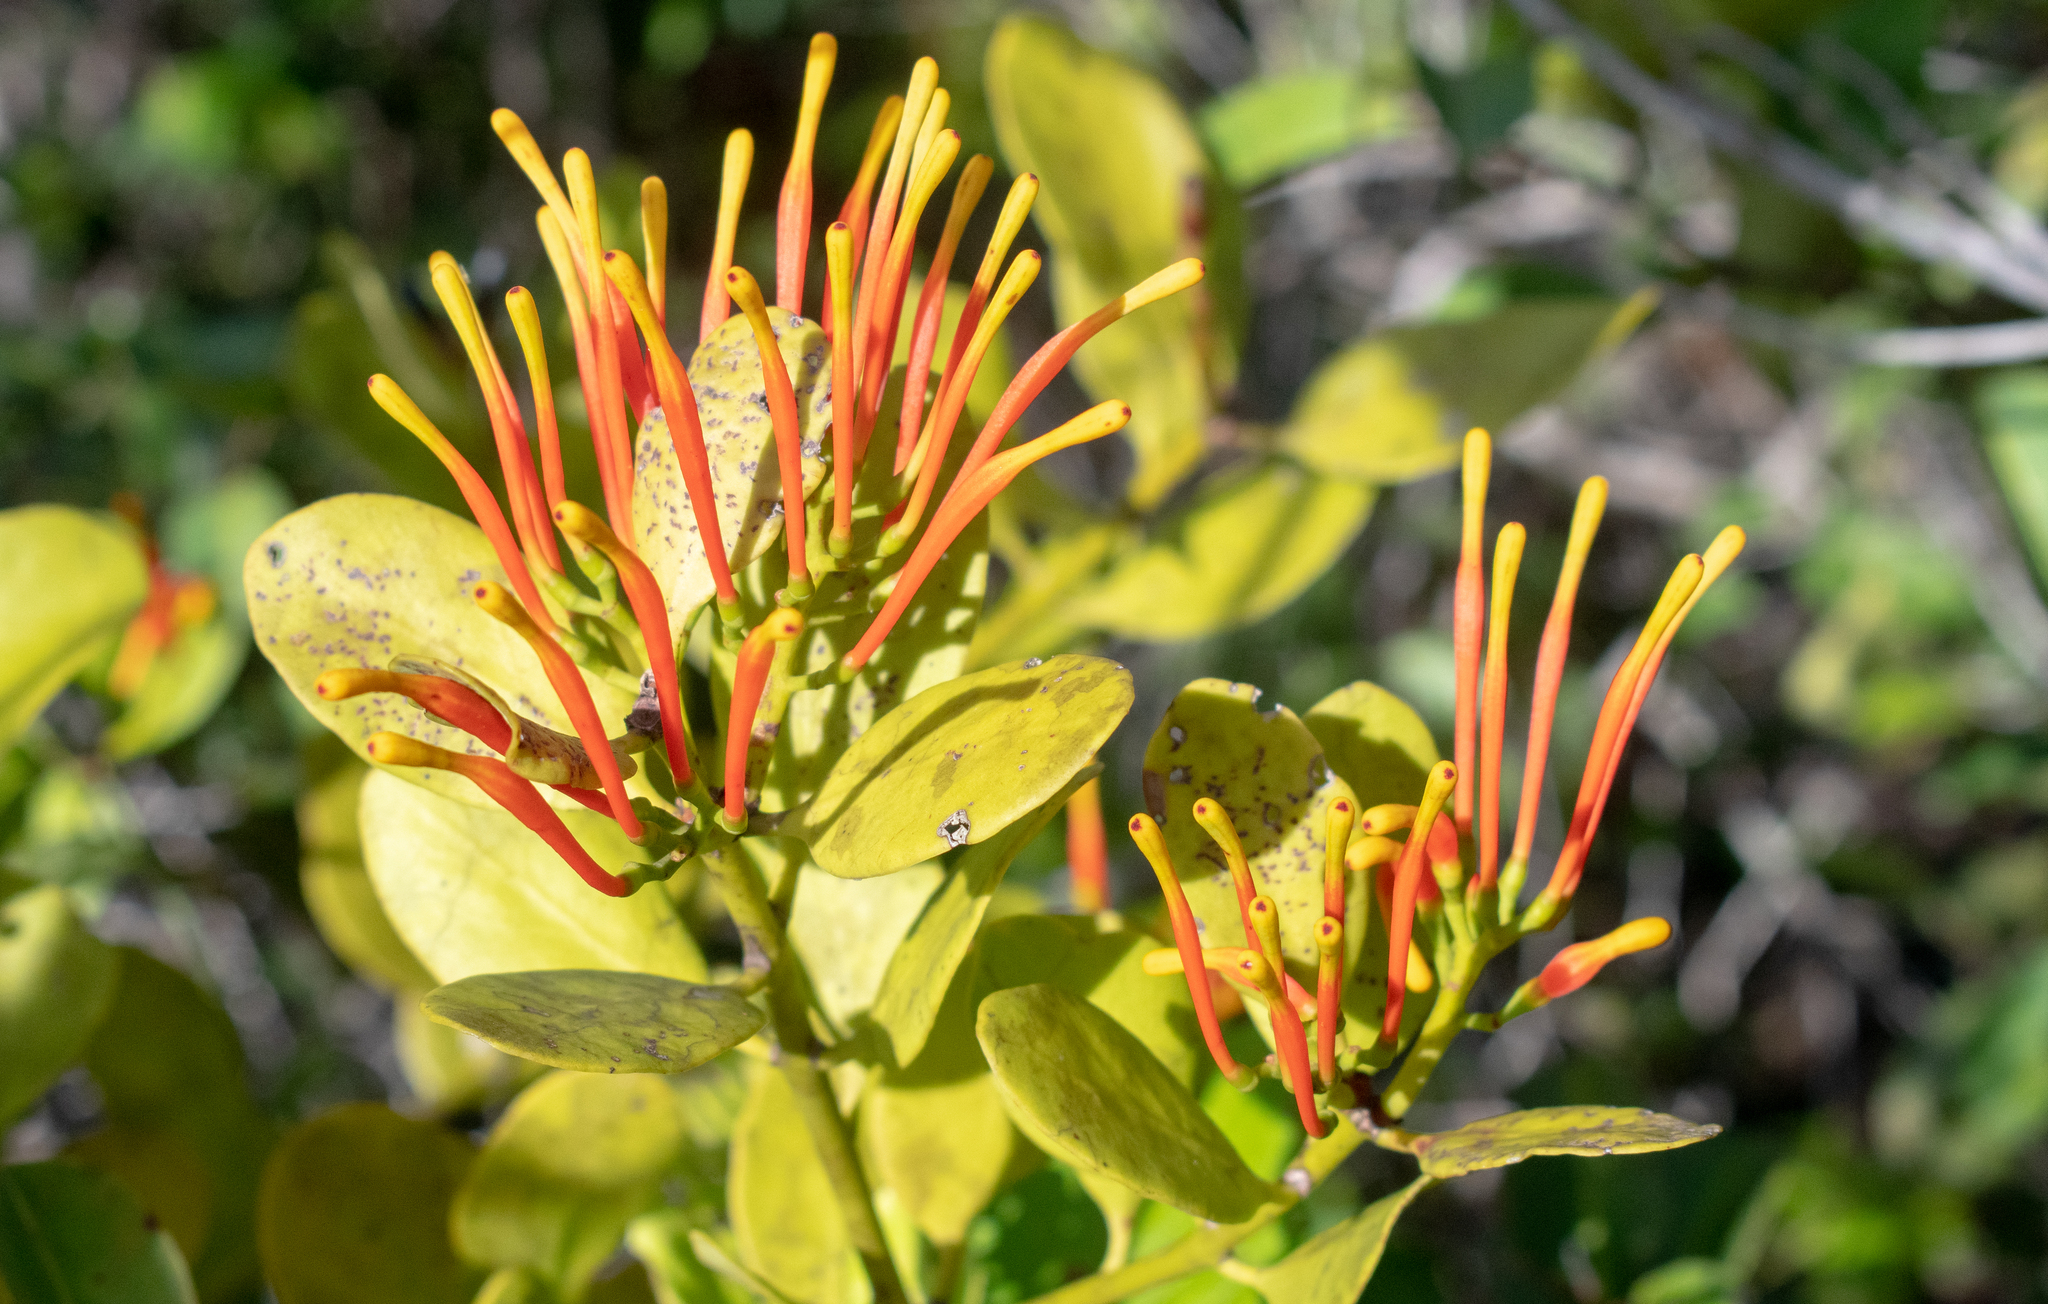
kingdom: Plantae
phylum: Tracheophyta
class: Magnoliopsida
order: Santalales
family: Loranthaceae
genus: Psittacanthus
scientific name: Psittacanthus clusiifolius
